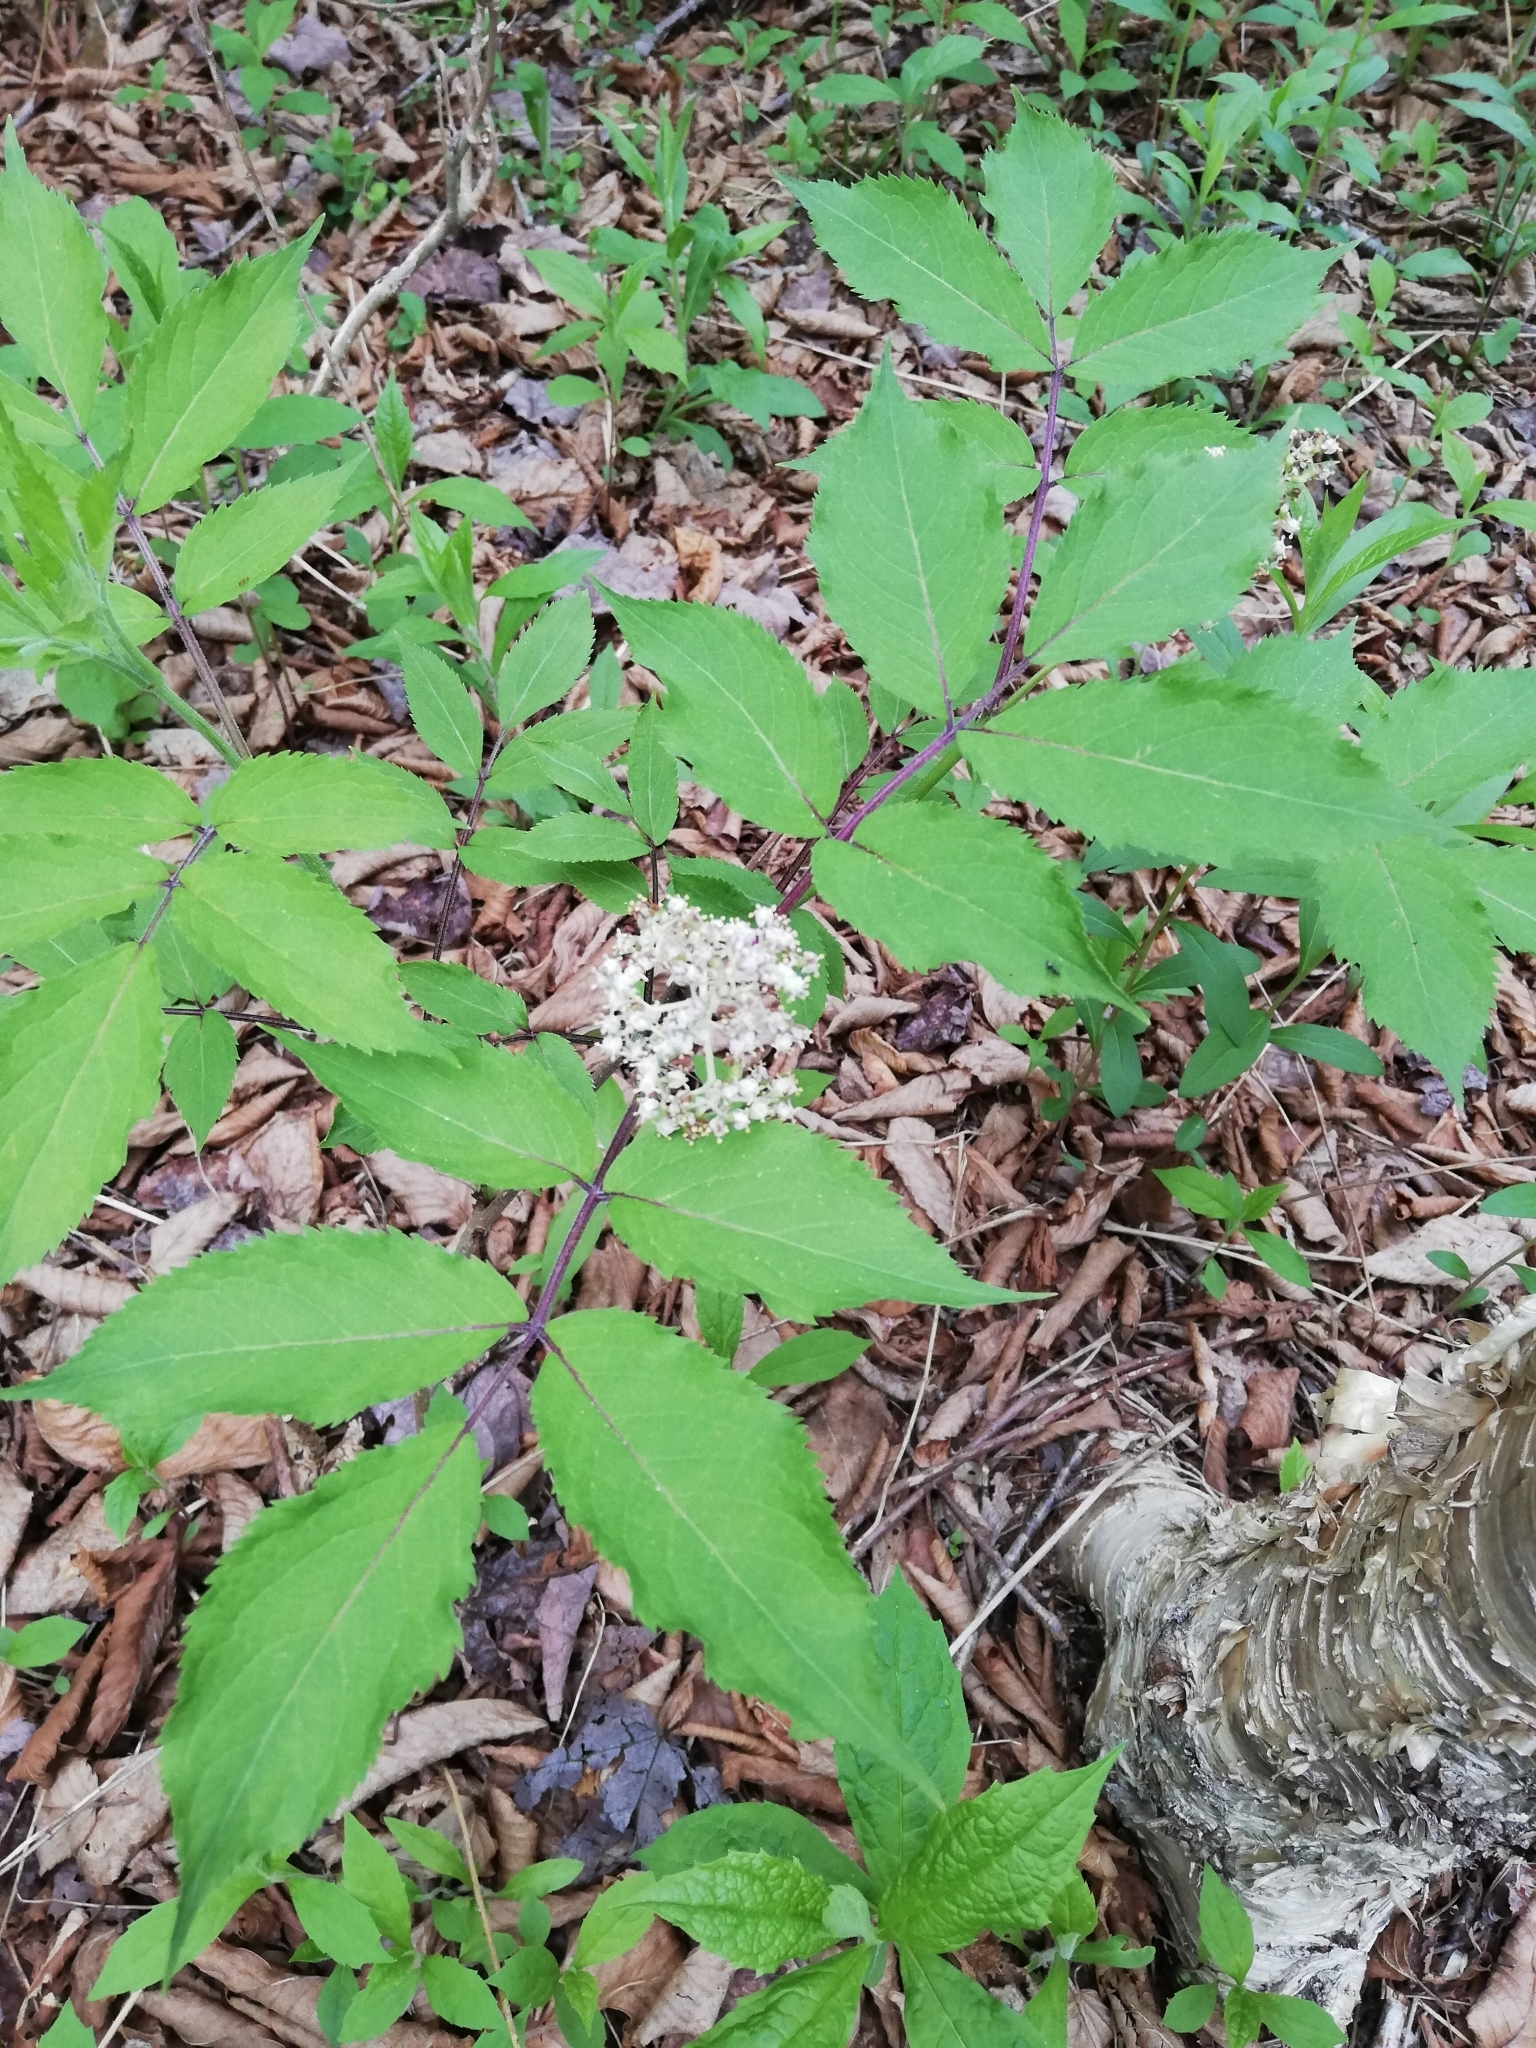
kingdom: Plantae
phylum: Tracheophyta
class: Magnoliopsida
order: Dipsacales
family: Viburnaceae
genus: Sambucus
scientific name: Sambucus racemosa
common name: Red-berried elder
